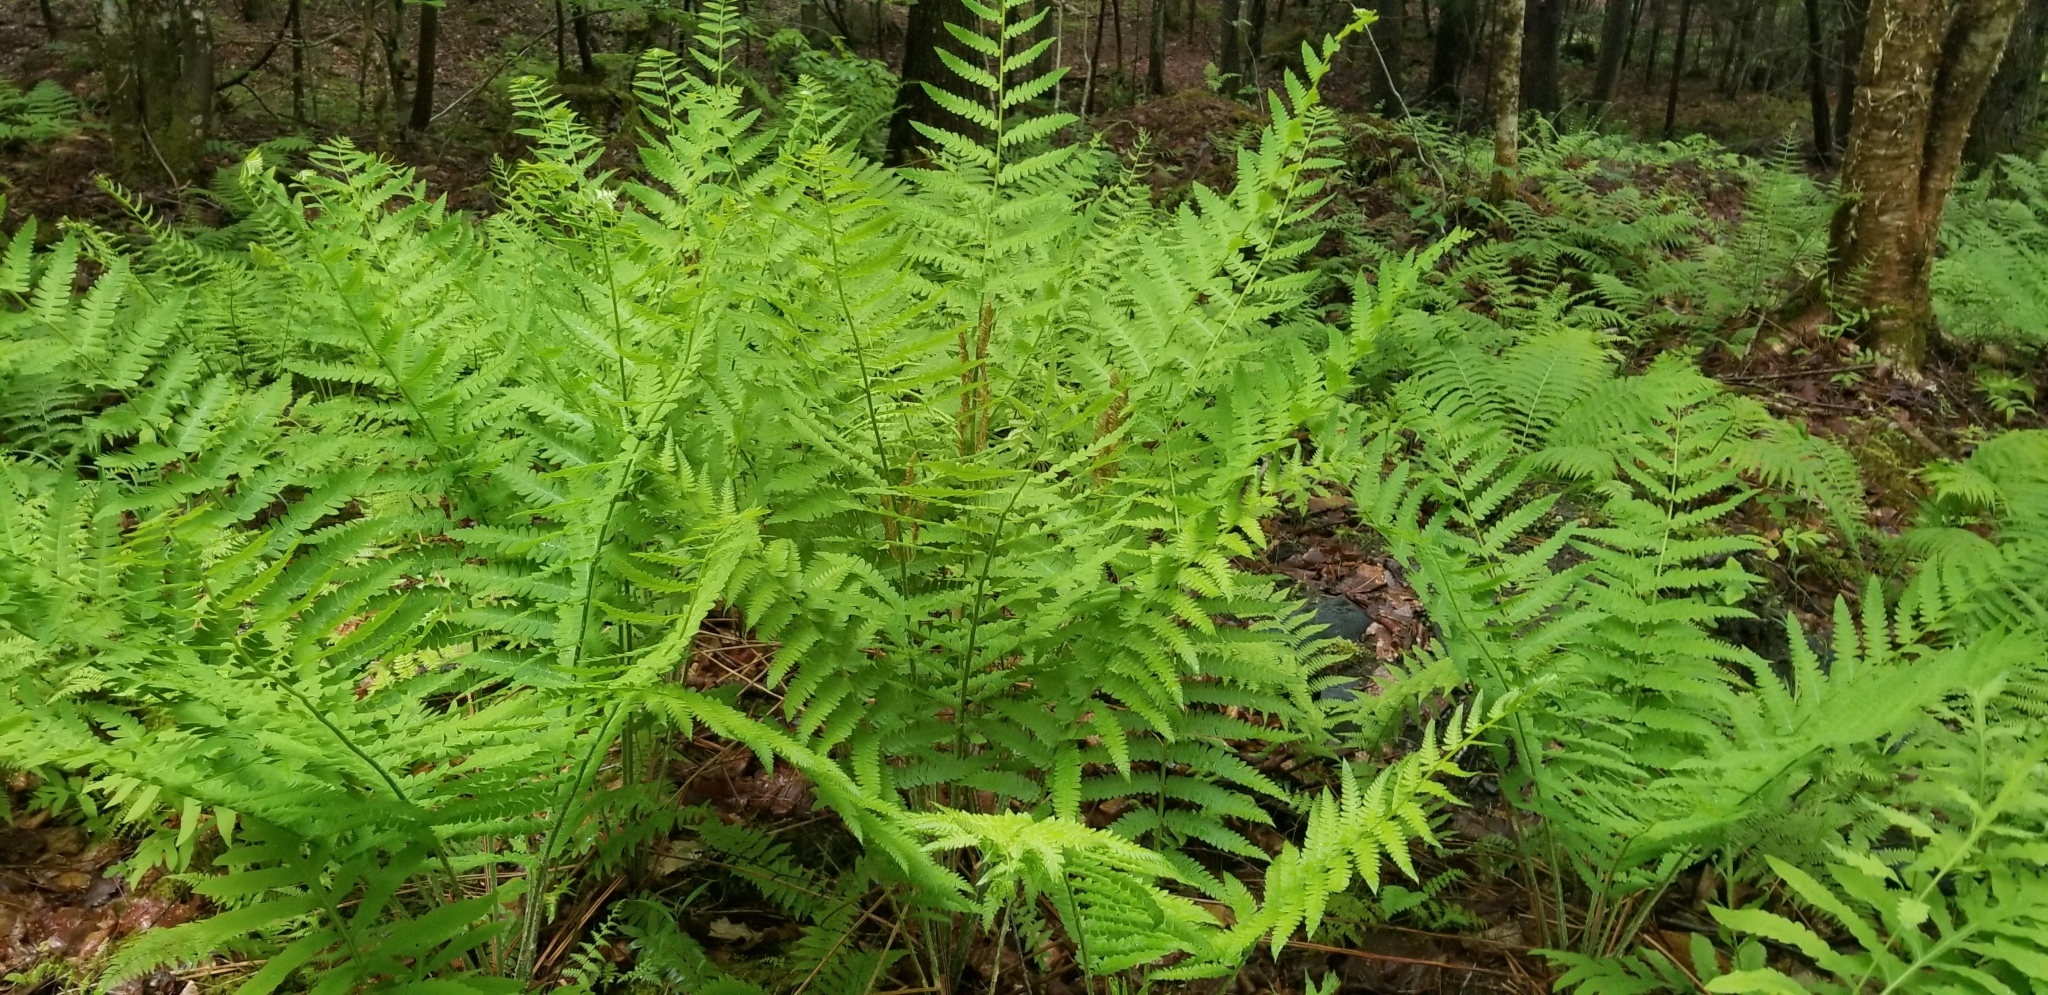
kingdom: Plantae
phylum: Tracheophyta
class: Polypodiopsida
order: Osmundales
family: Osmundaceae
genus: Claytosmunda
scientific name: Claytosmunda claytoniana
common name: Clayton's fern
